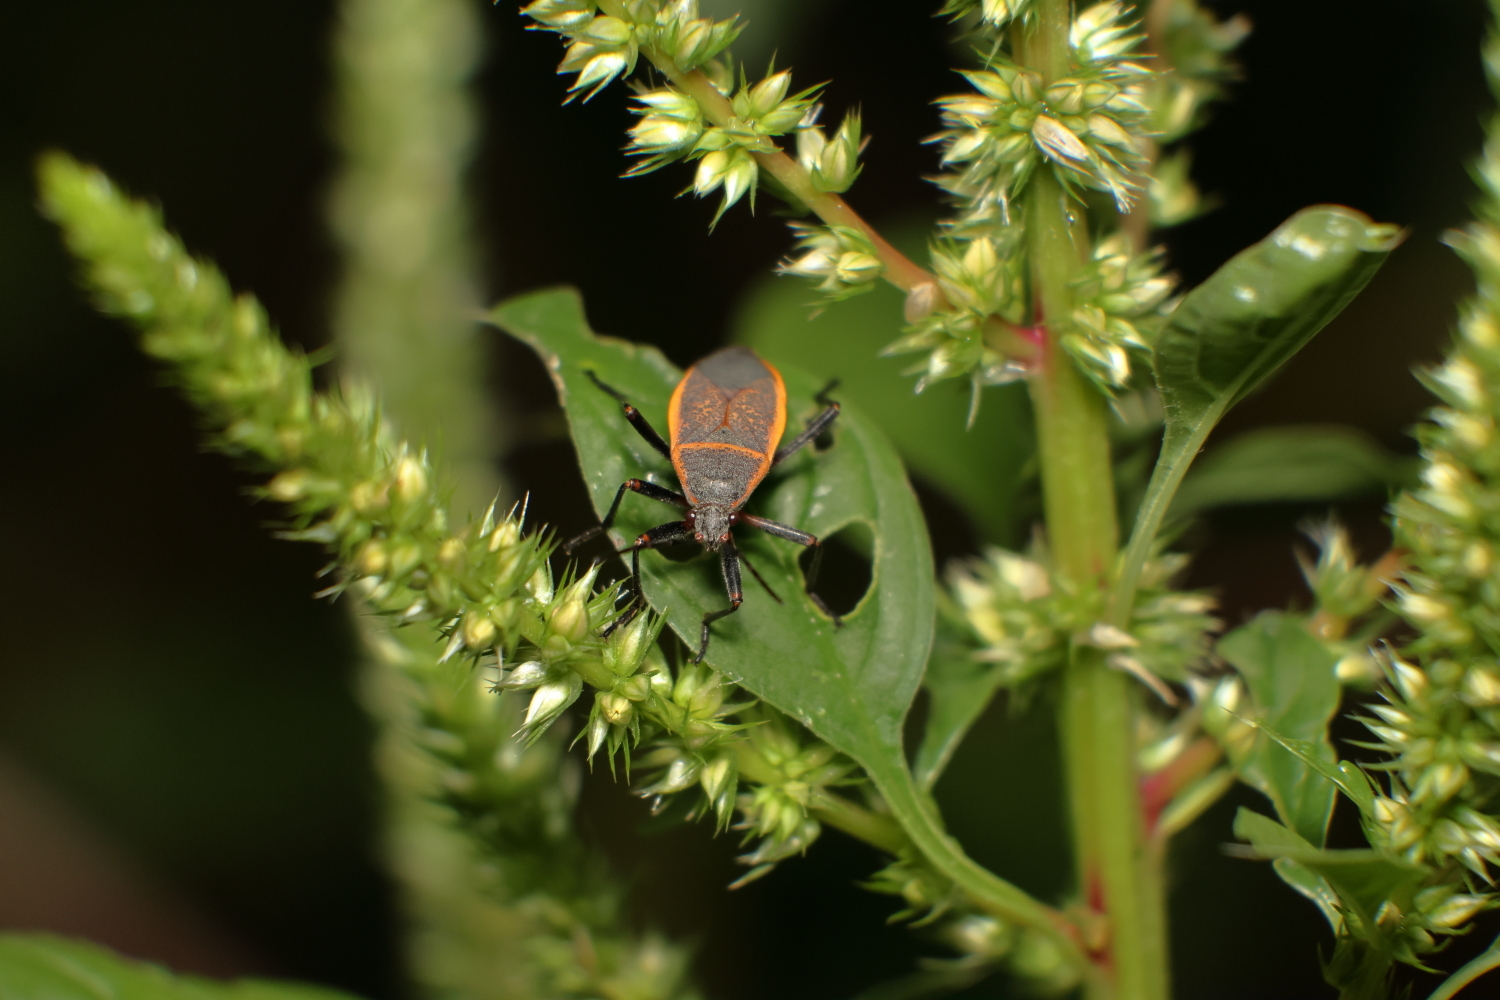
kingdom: Animalia
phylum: Arthropoda
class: Insecta
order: Hemiptera
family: Largidae
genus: Largus
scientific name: Largus californicus
